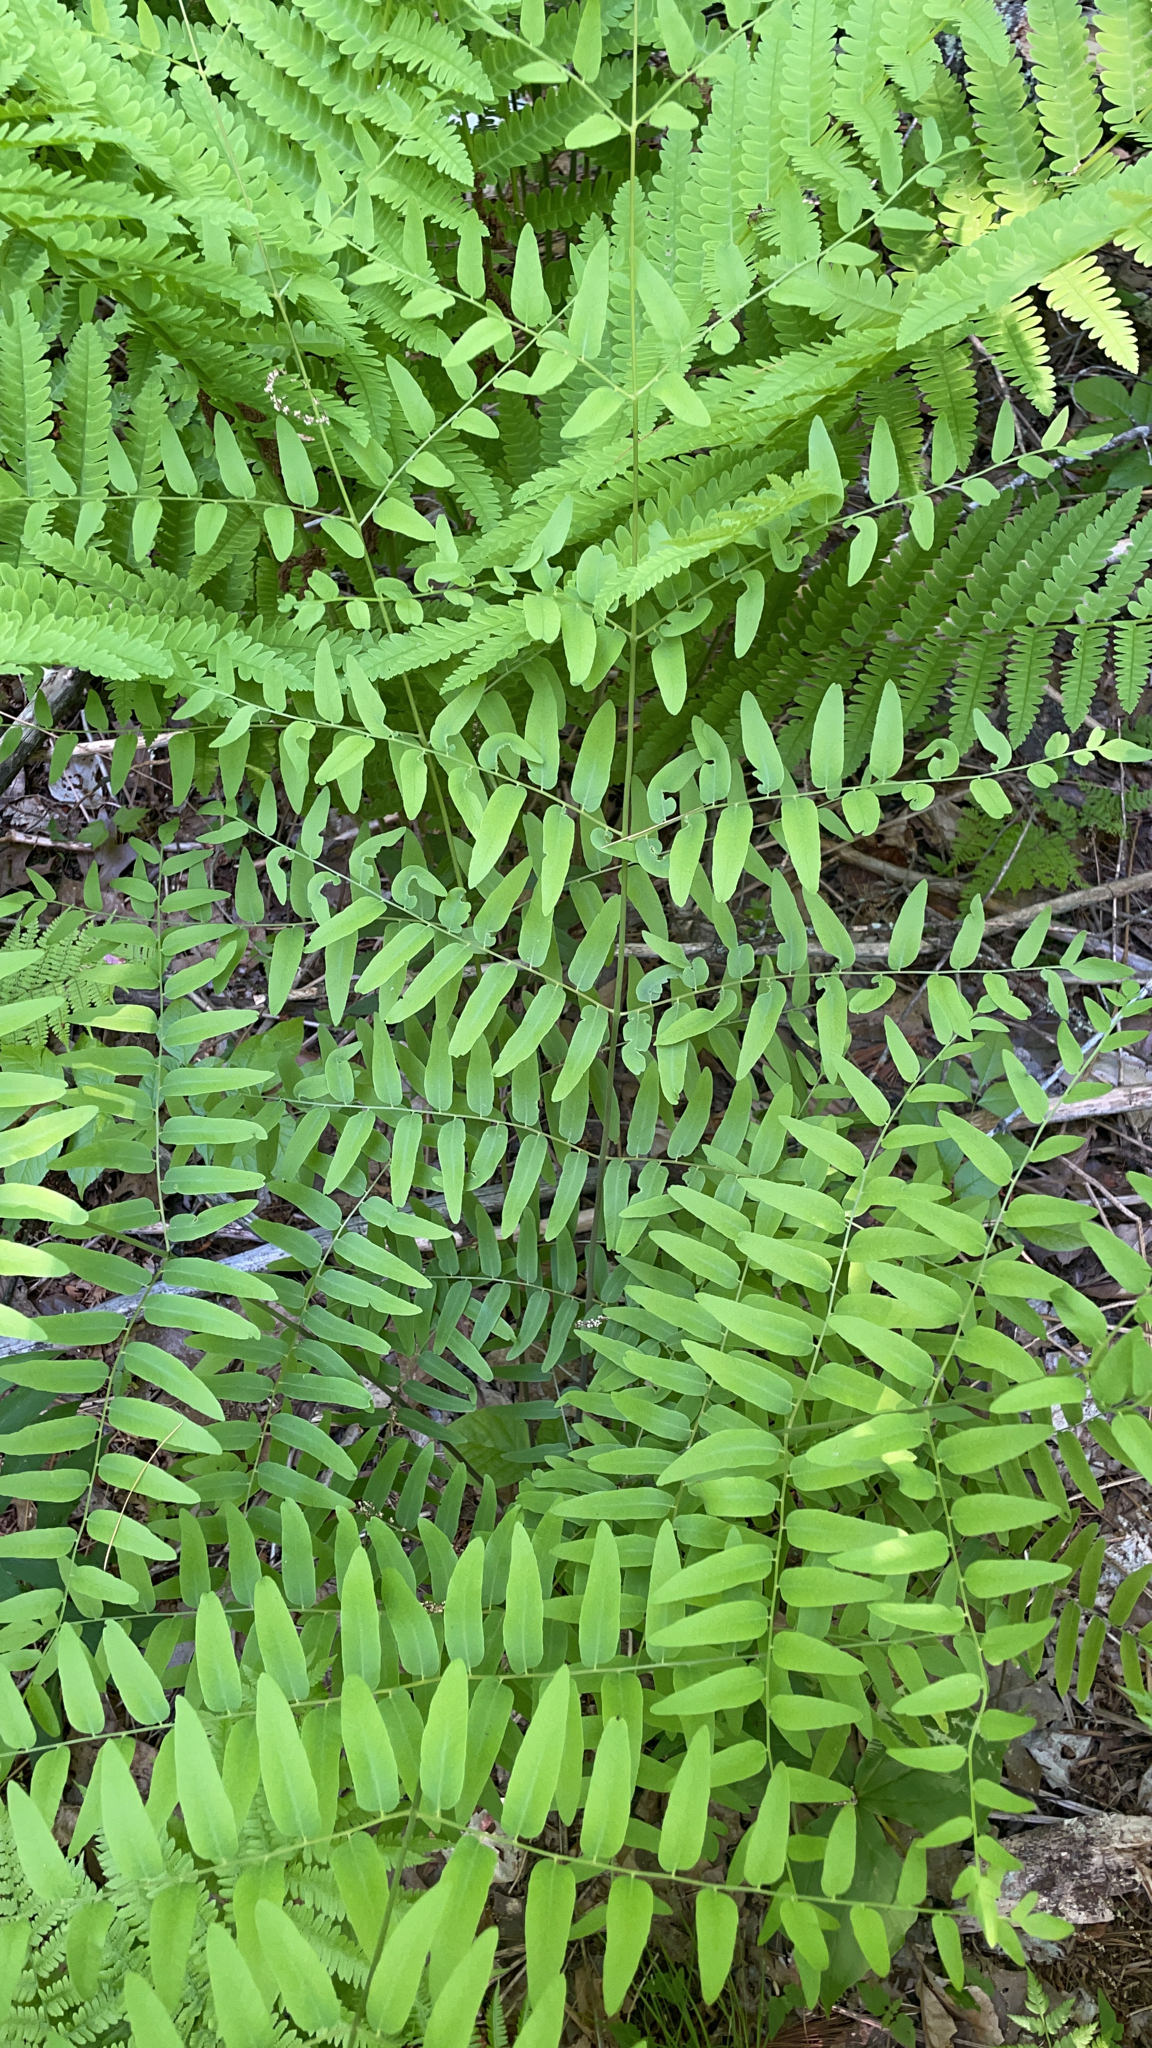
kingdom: Plantae
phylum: Tracheophyta
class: Polypodiopsida
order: Osmundales
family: Osmundaceae
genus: Osmunda
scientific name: Osmunda spectabilis
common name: American royal fern
